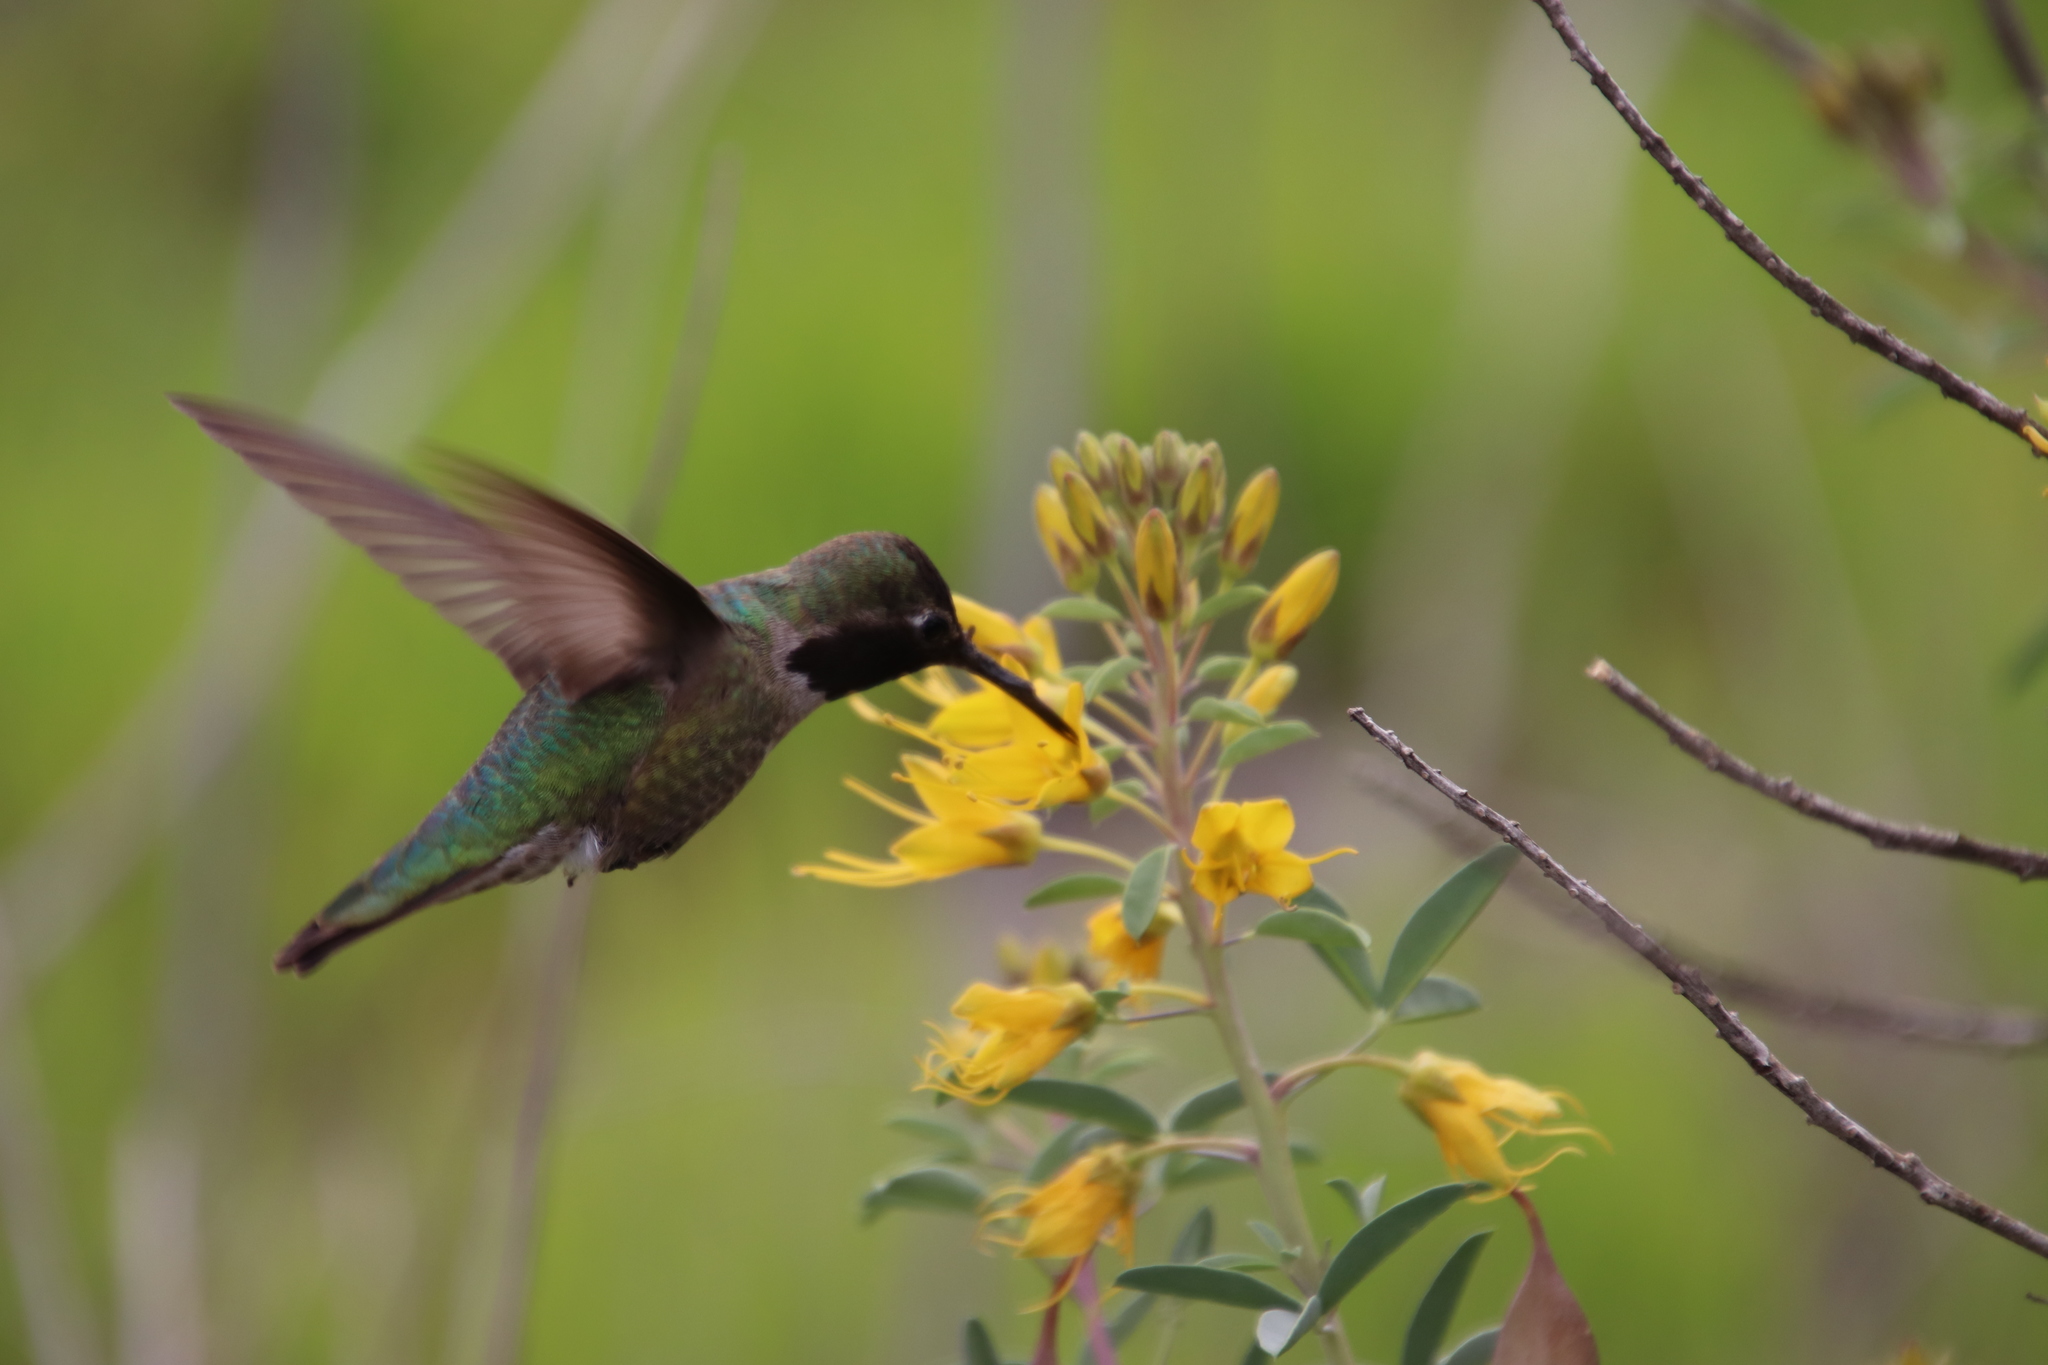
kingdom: Animalia
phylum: Chordata
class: Aves
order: Apodiformes
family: Trochilidae
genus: Calypte
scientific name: Calypte anna
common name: Anna's hummingbird
